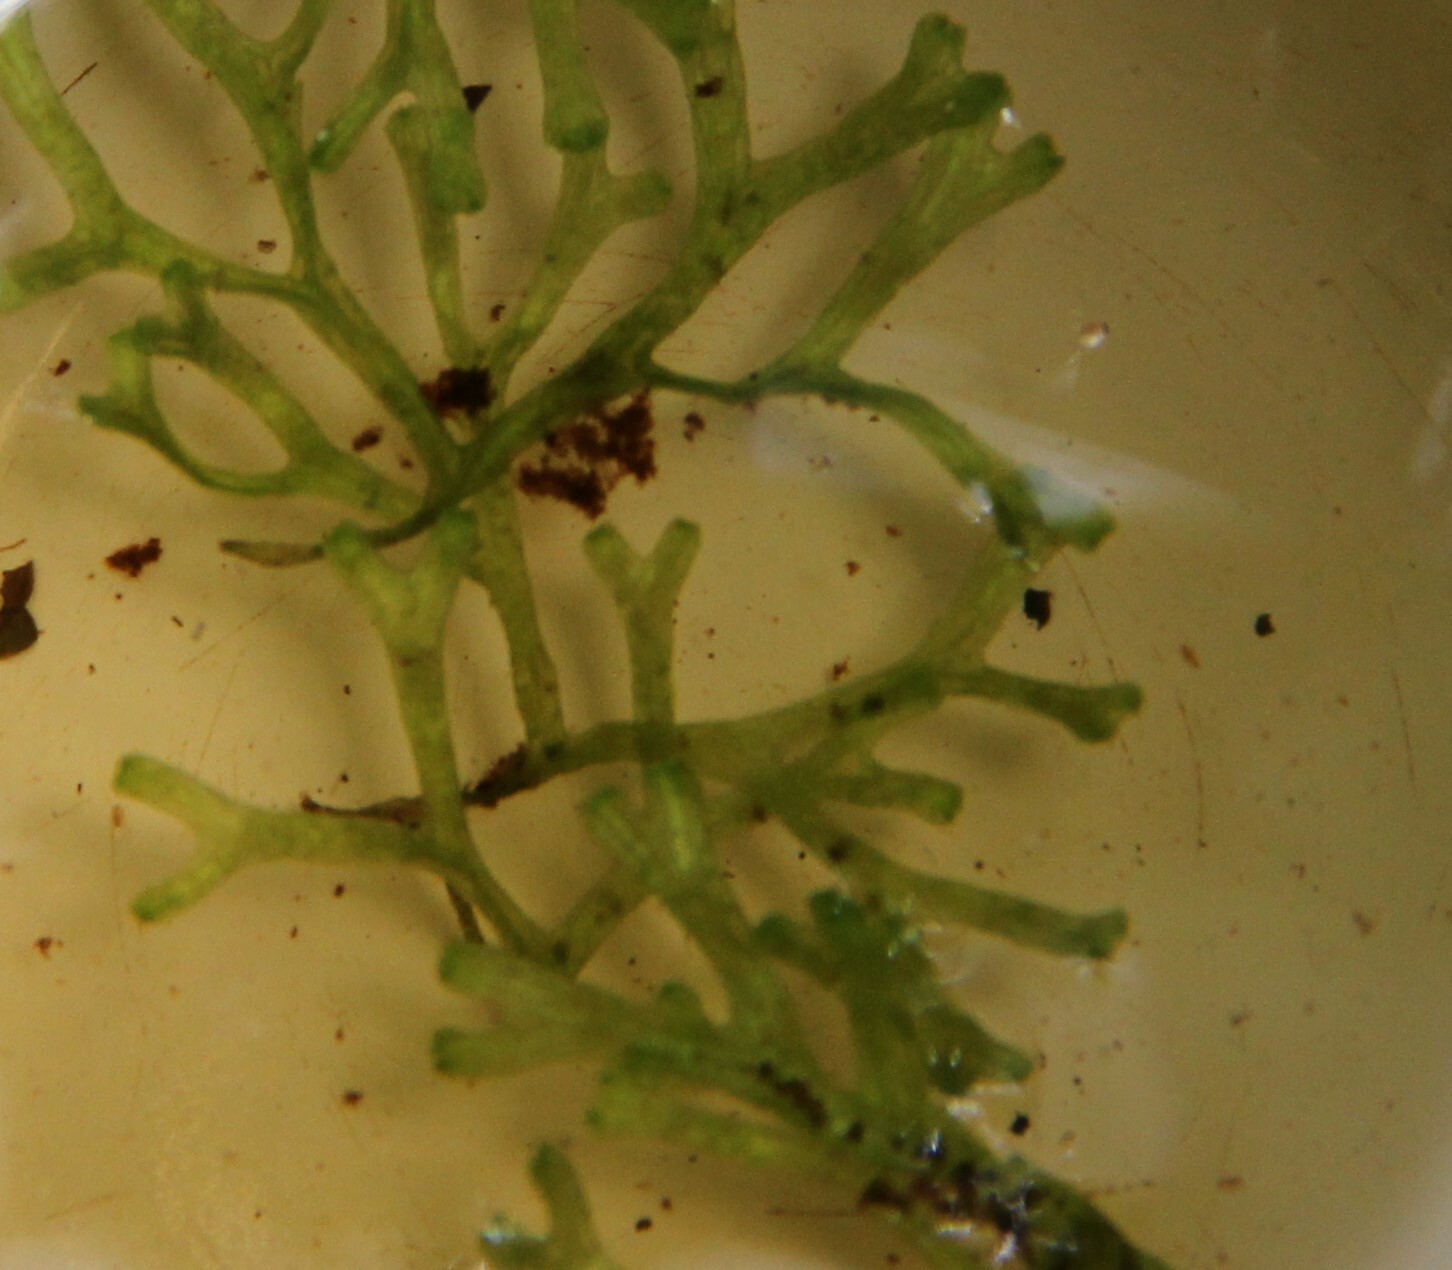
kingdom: Plantae
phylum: Marchantiophyta
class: Marchantiopsida
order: Marchantiales
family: Ricciaceae
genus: Riccia
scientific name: Riccia fluitans
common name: Floating crystalwort
